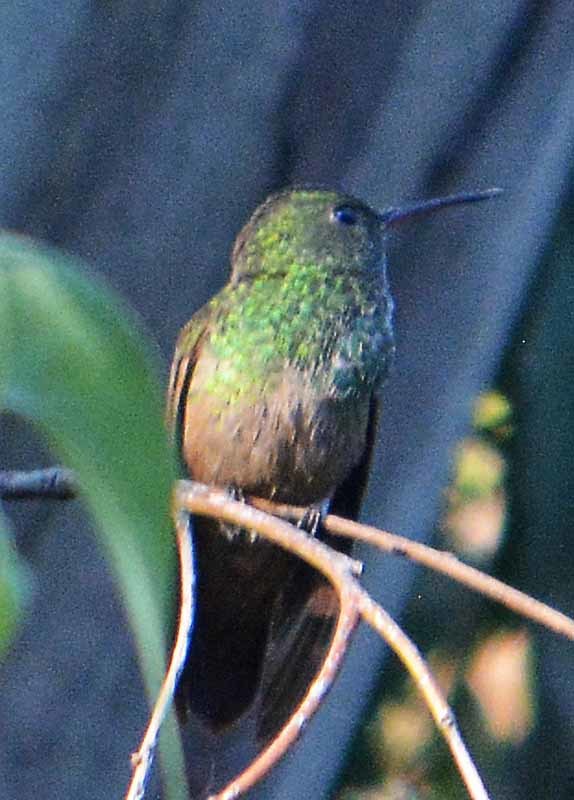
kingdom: Animalia
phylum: Chordata
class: Aves
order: Apodiformes
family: Trochilidae
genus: Saucerottia
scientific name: Saucerottia beryllina
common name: Berylline hummingbird
